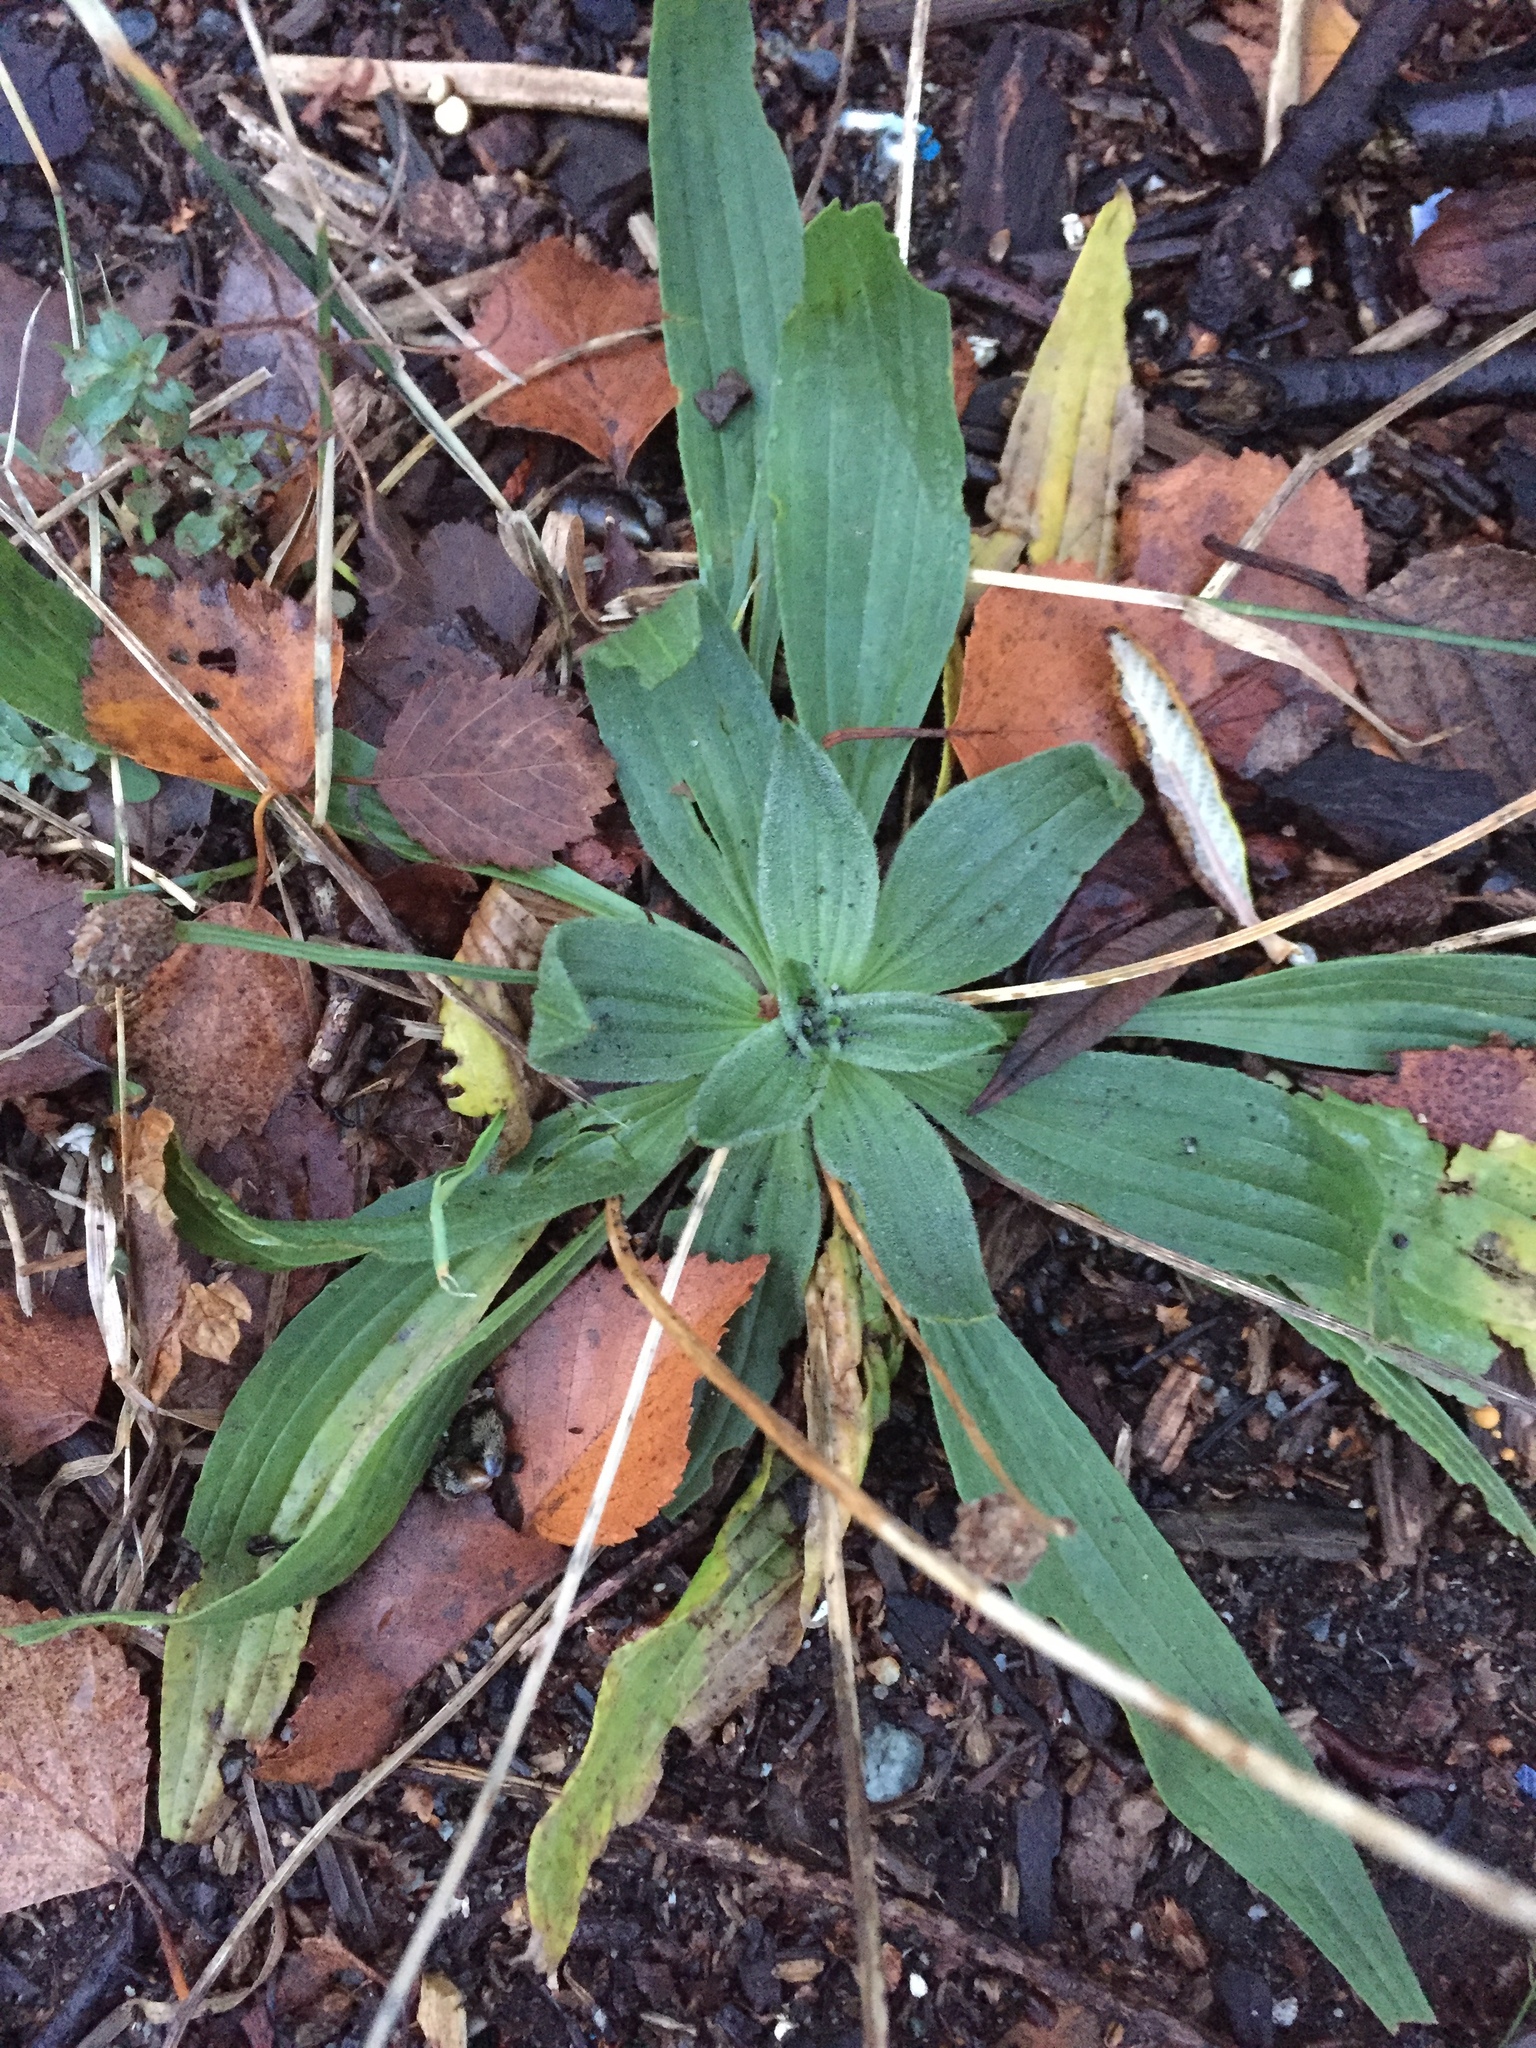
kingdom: Plantae
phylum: Tracheophyta
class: Magnoliopsida
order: Lamiales
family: Plantaginaceae
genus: Plantago
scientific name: Plantago lanceolata
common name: Ribwort plantain
